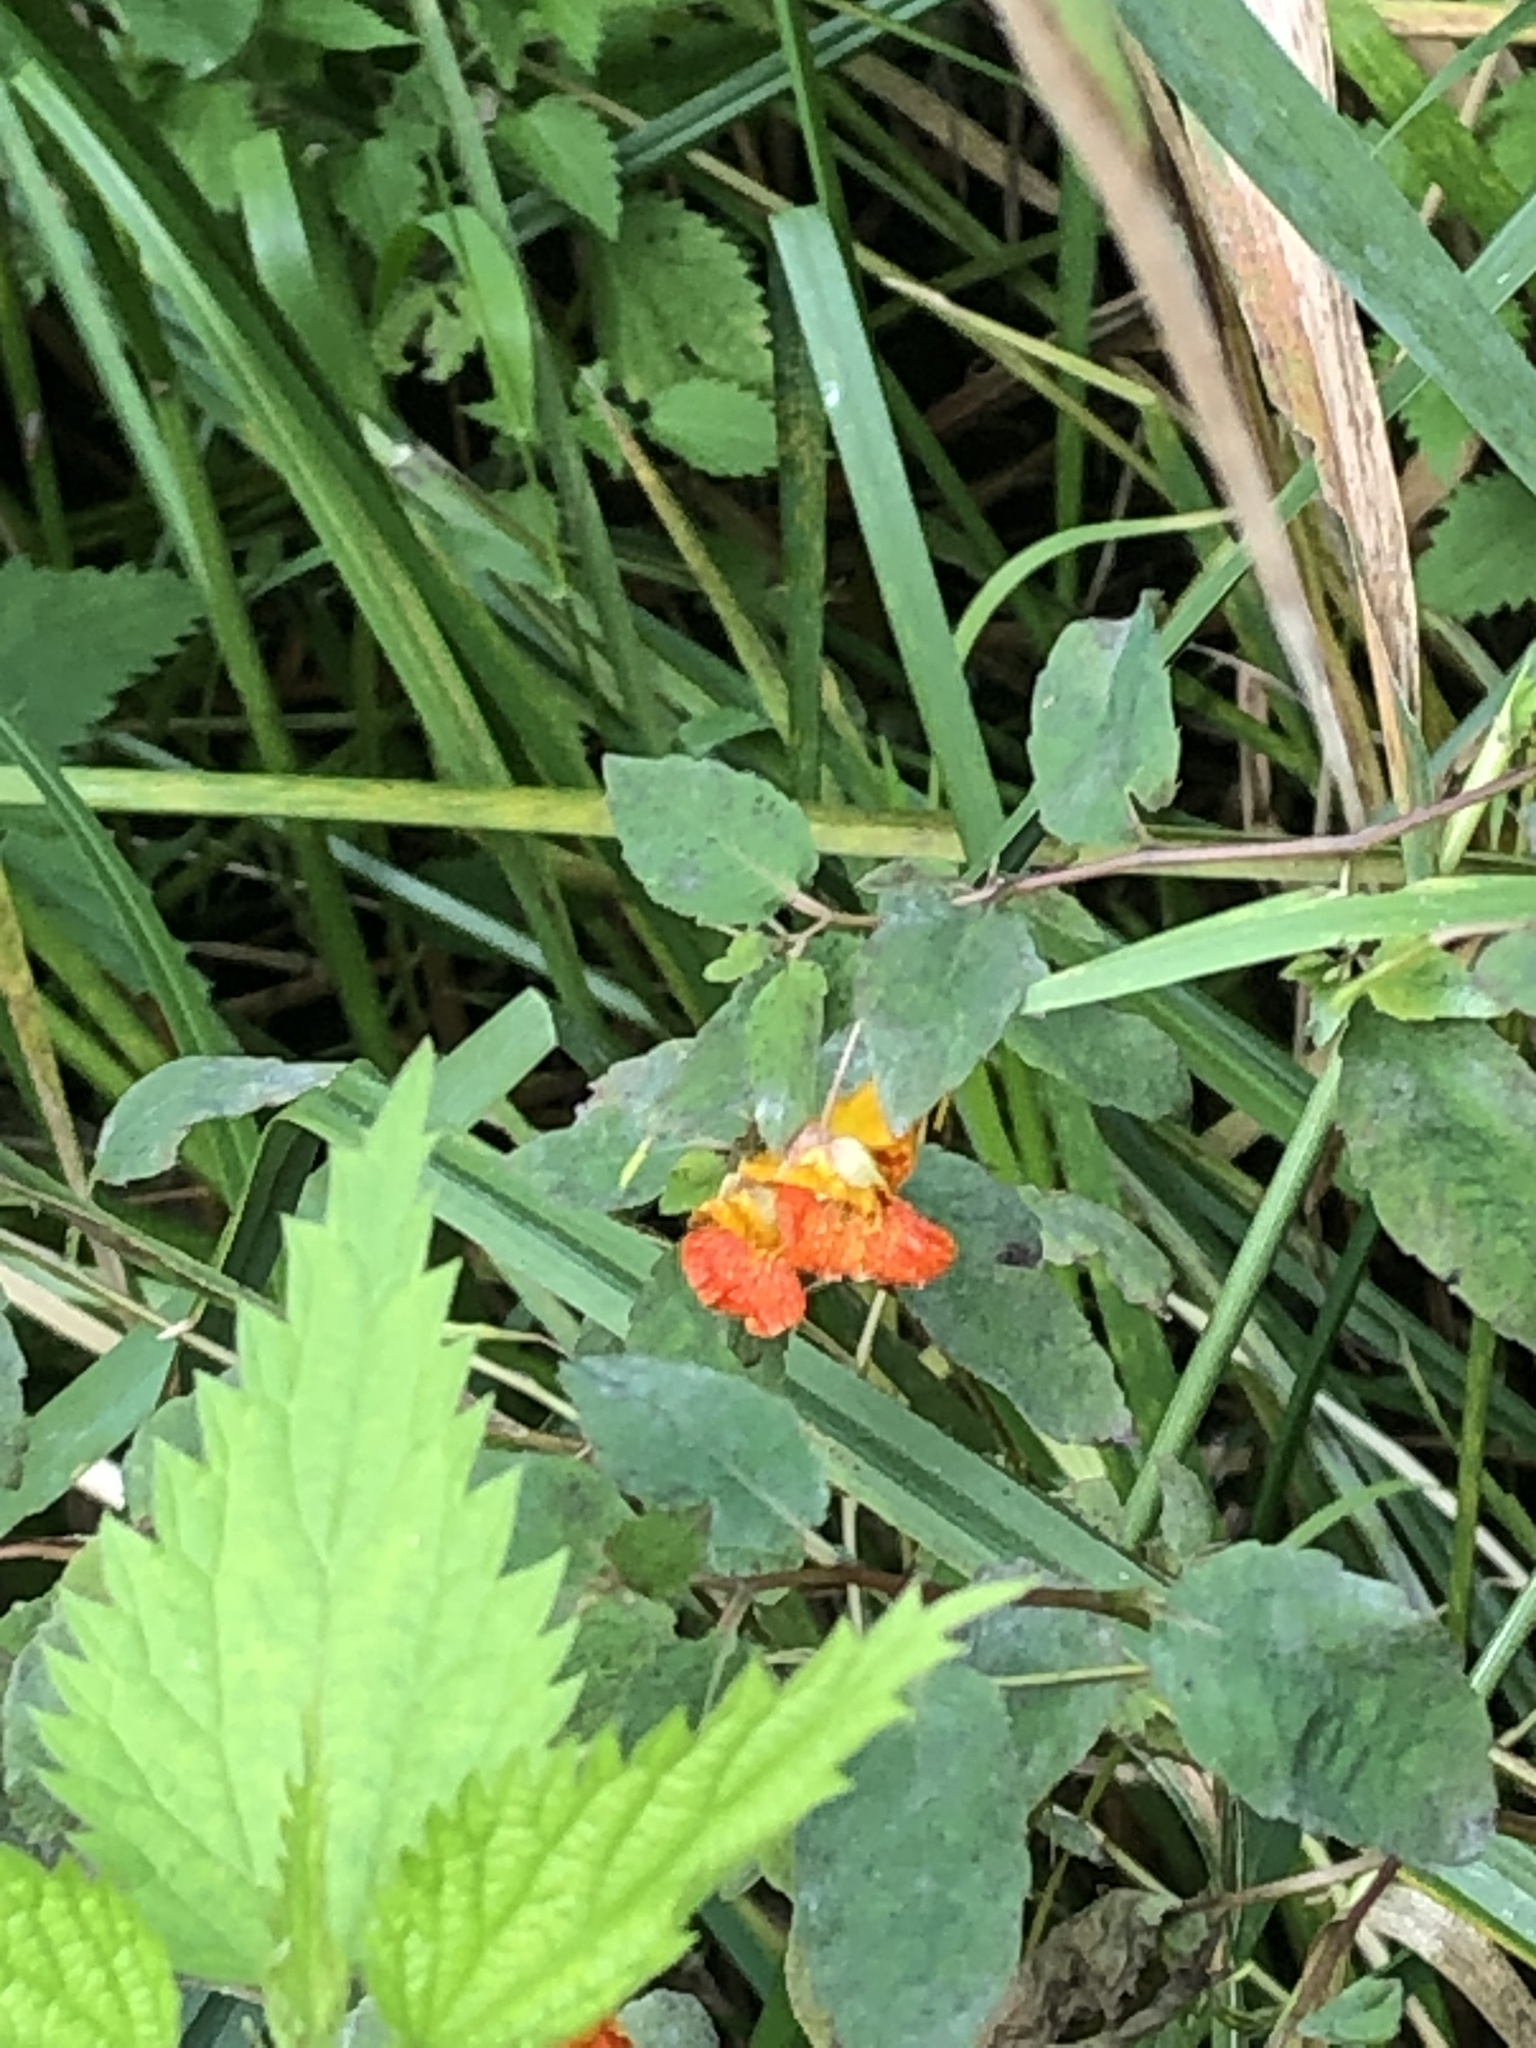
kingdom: Plantae
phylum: Tracheophyta
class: Magnoliopsida
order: Ericales
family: Balsaminaceae
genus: Impatiens
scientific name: Impatiens capensis
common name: Orange balsam
